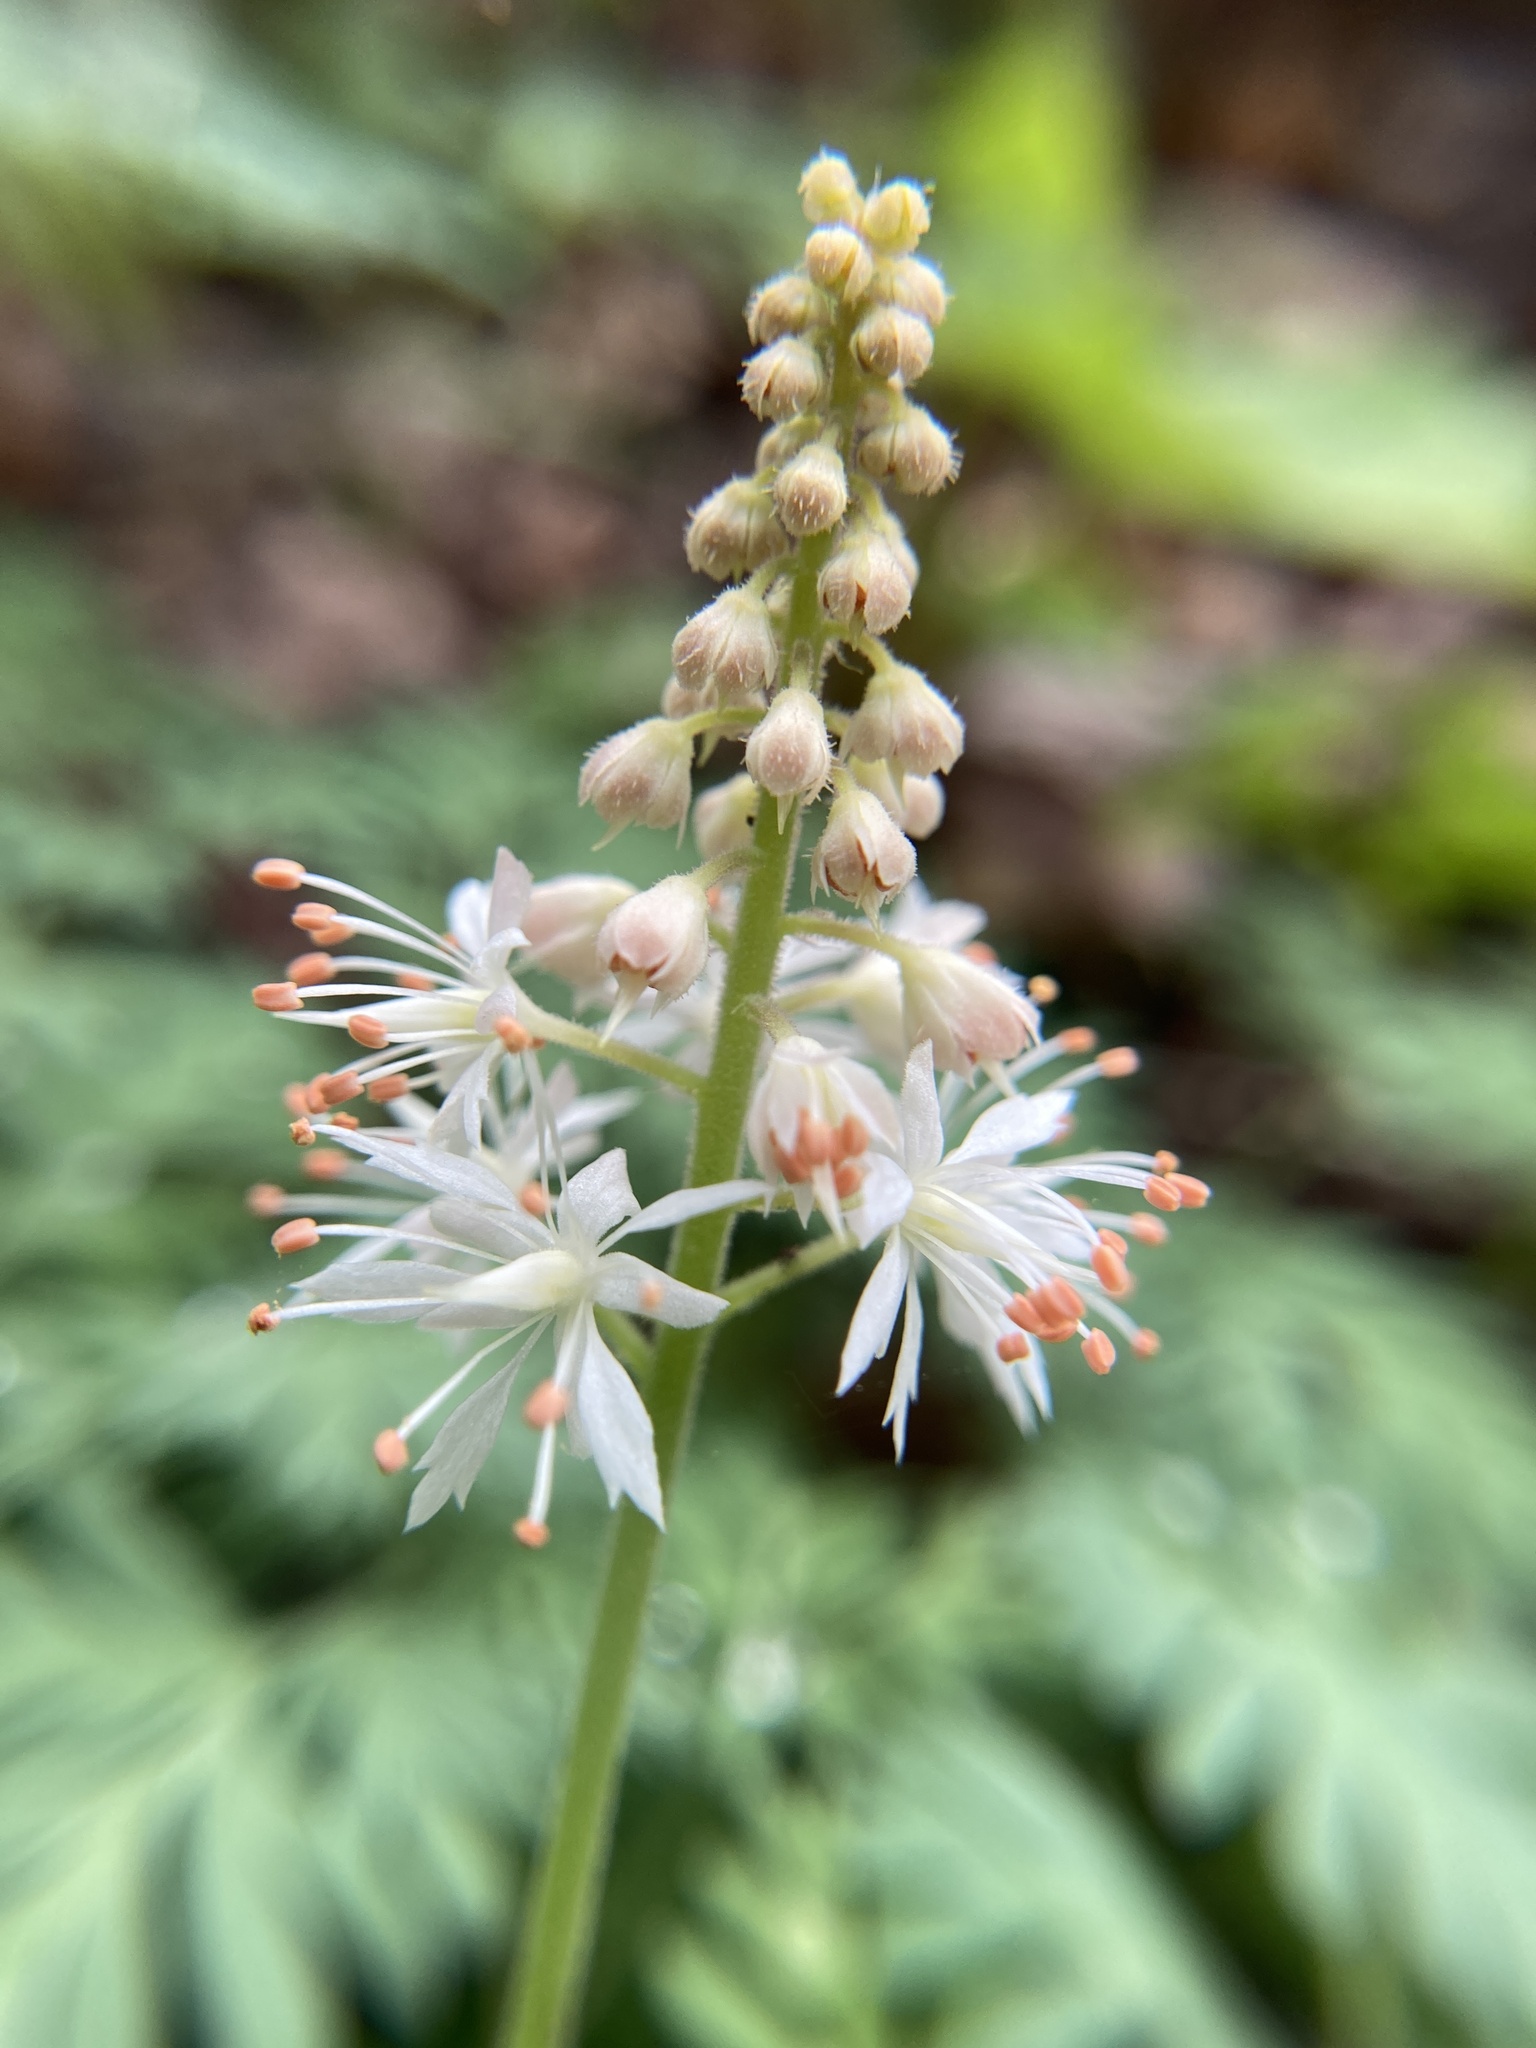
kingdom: Plantae
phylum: Tracheophyta
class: Magnoliopsida
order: Saxifragales
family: Saxifragaceae
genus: Tiarella
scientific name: Tiarella stolonifera
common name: Stoloniferous foamflower
